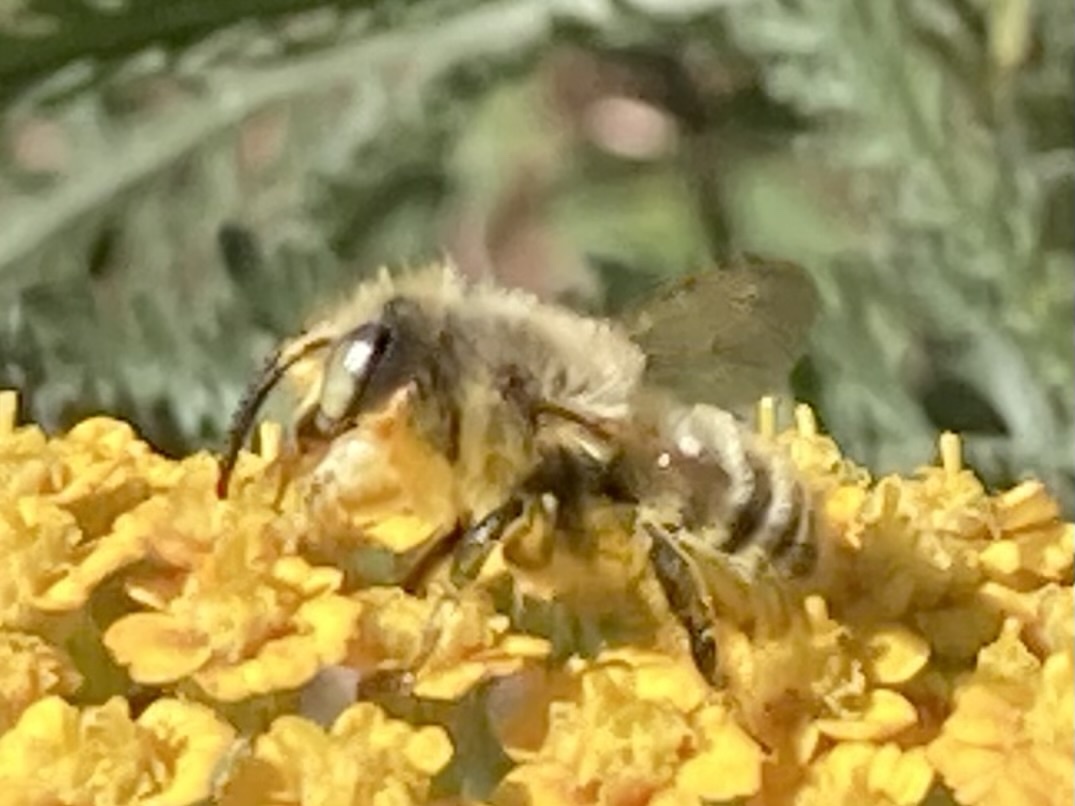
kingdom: Animalia
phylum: Arthropoda
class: Insecta
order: Hymenoptera
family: Megachilidae
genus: Megachile
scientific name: Megachile perihirta
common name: Western leafcutter
